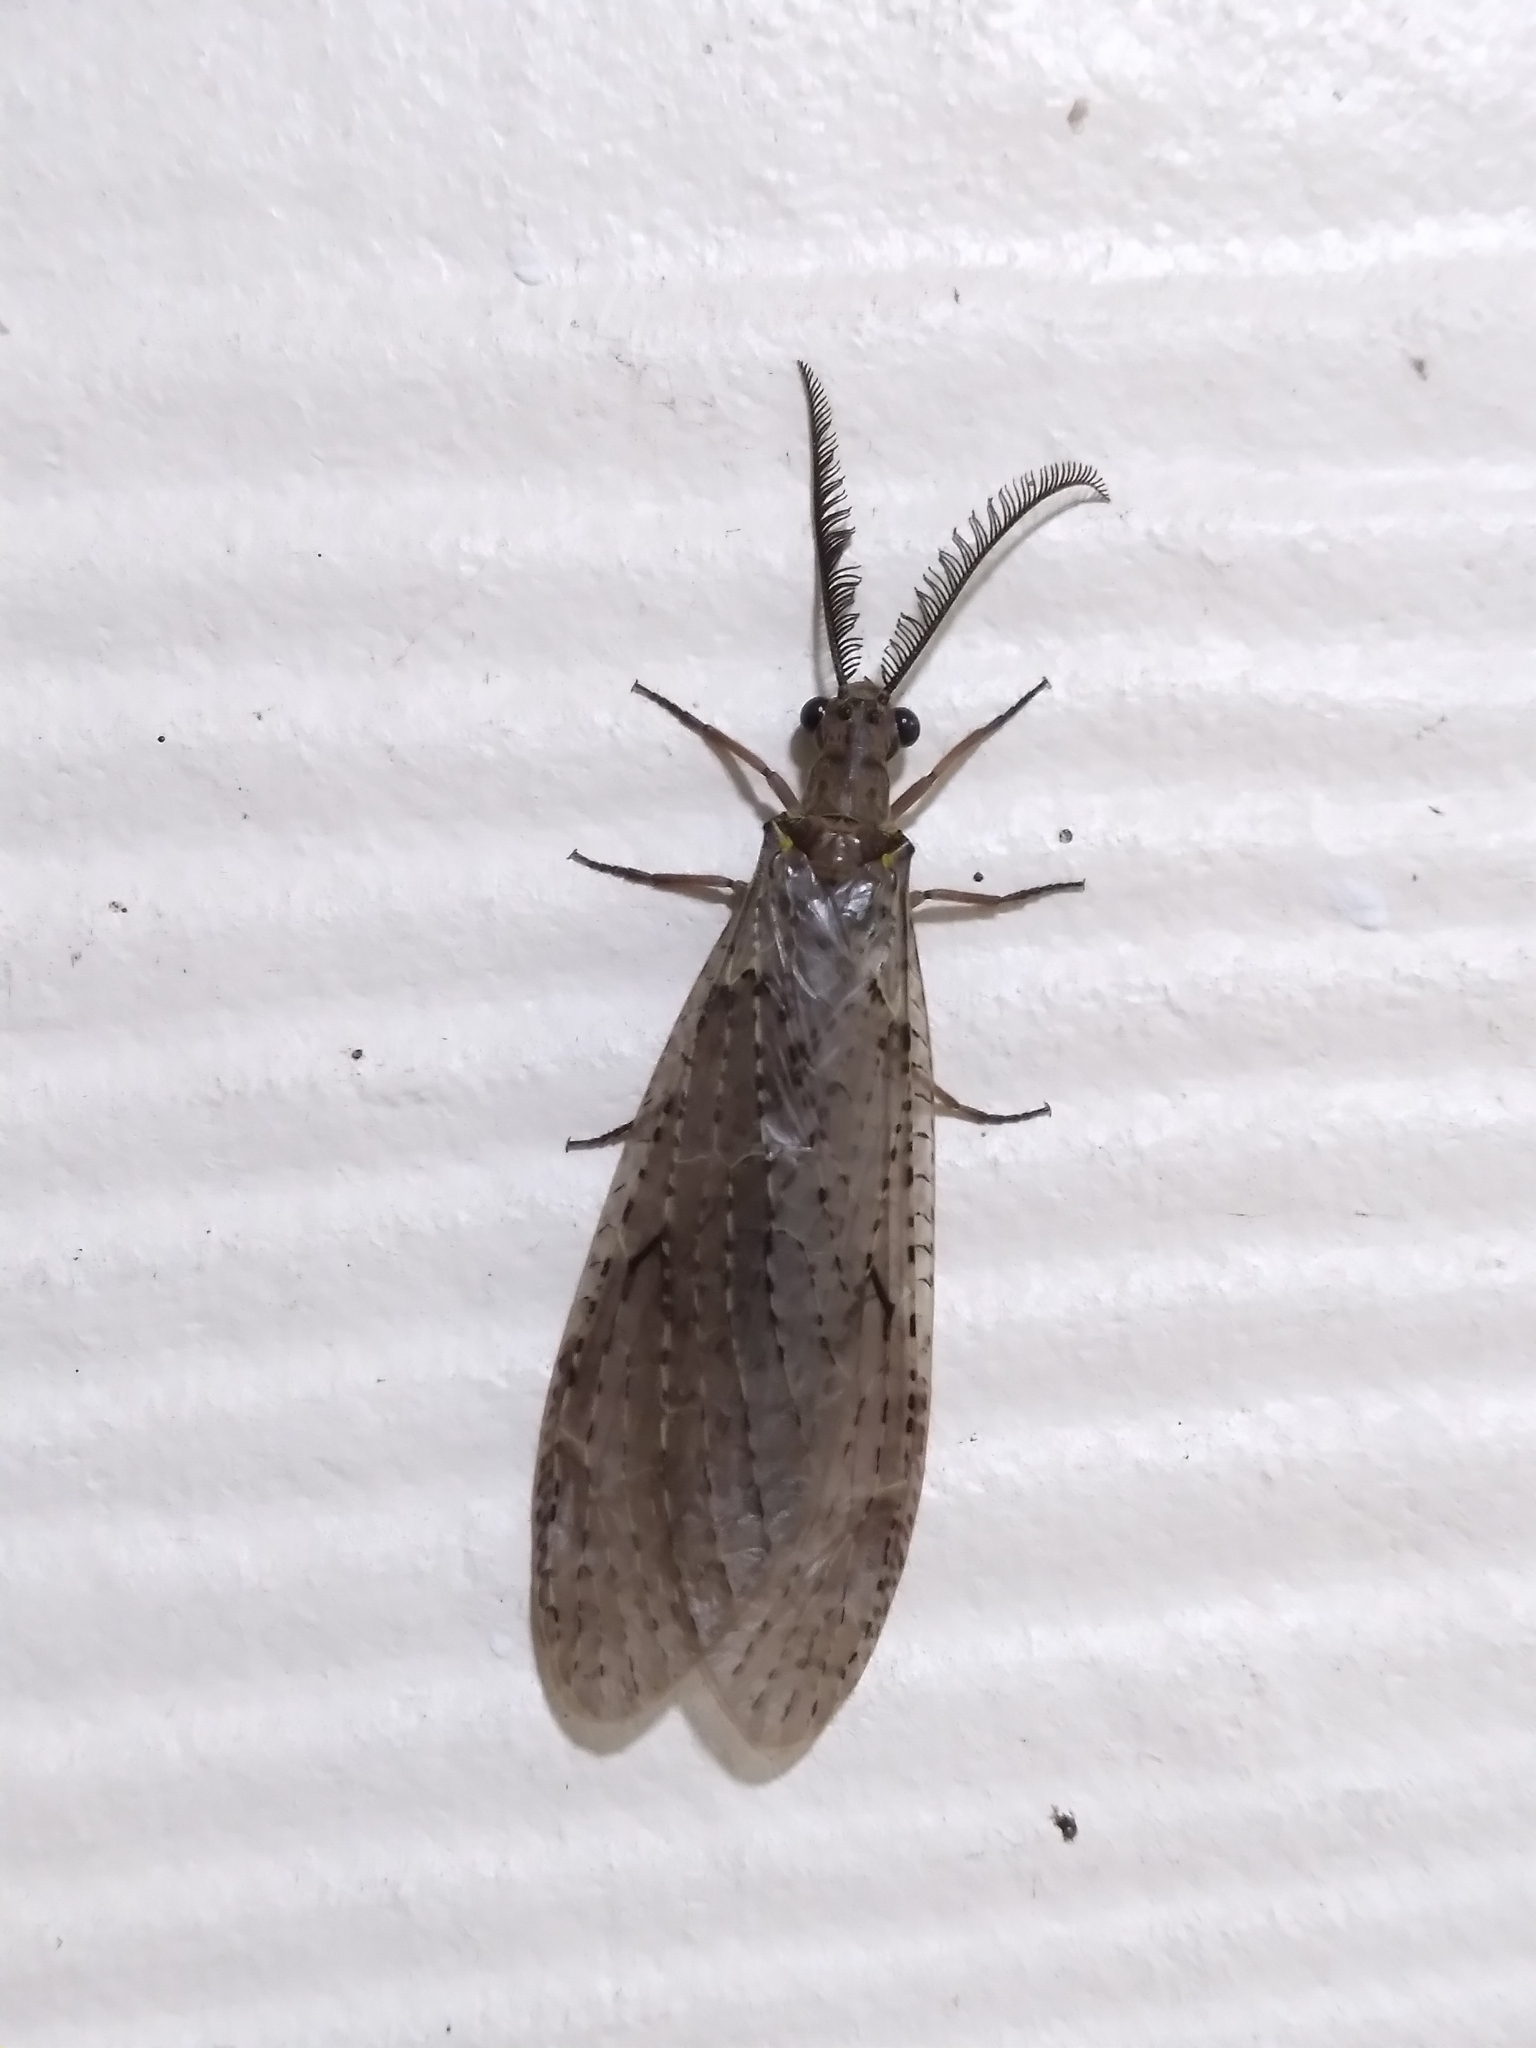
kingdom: Animalia
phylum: Arthropoda
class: Insecta
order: Megaloptera
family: Corydalidae
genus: Chauliodes
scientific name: Chauliodes rastricornis
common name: Spring fishfly
